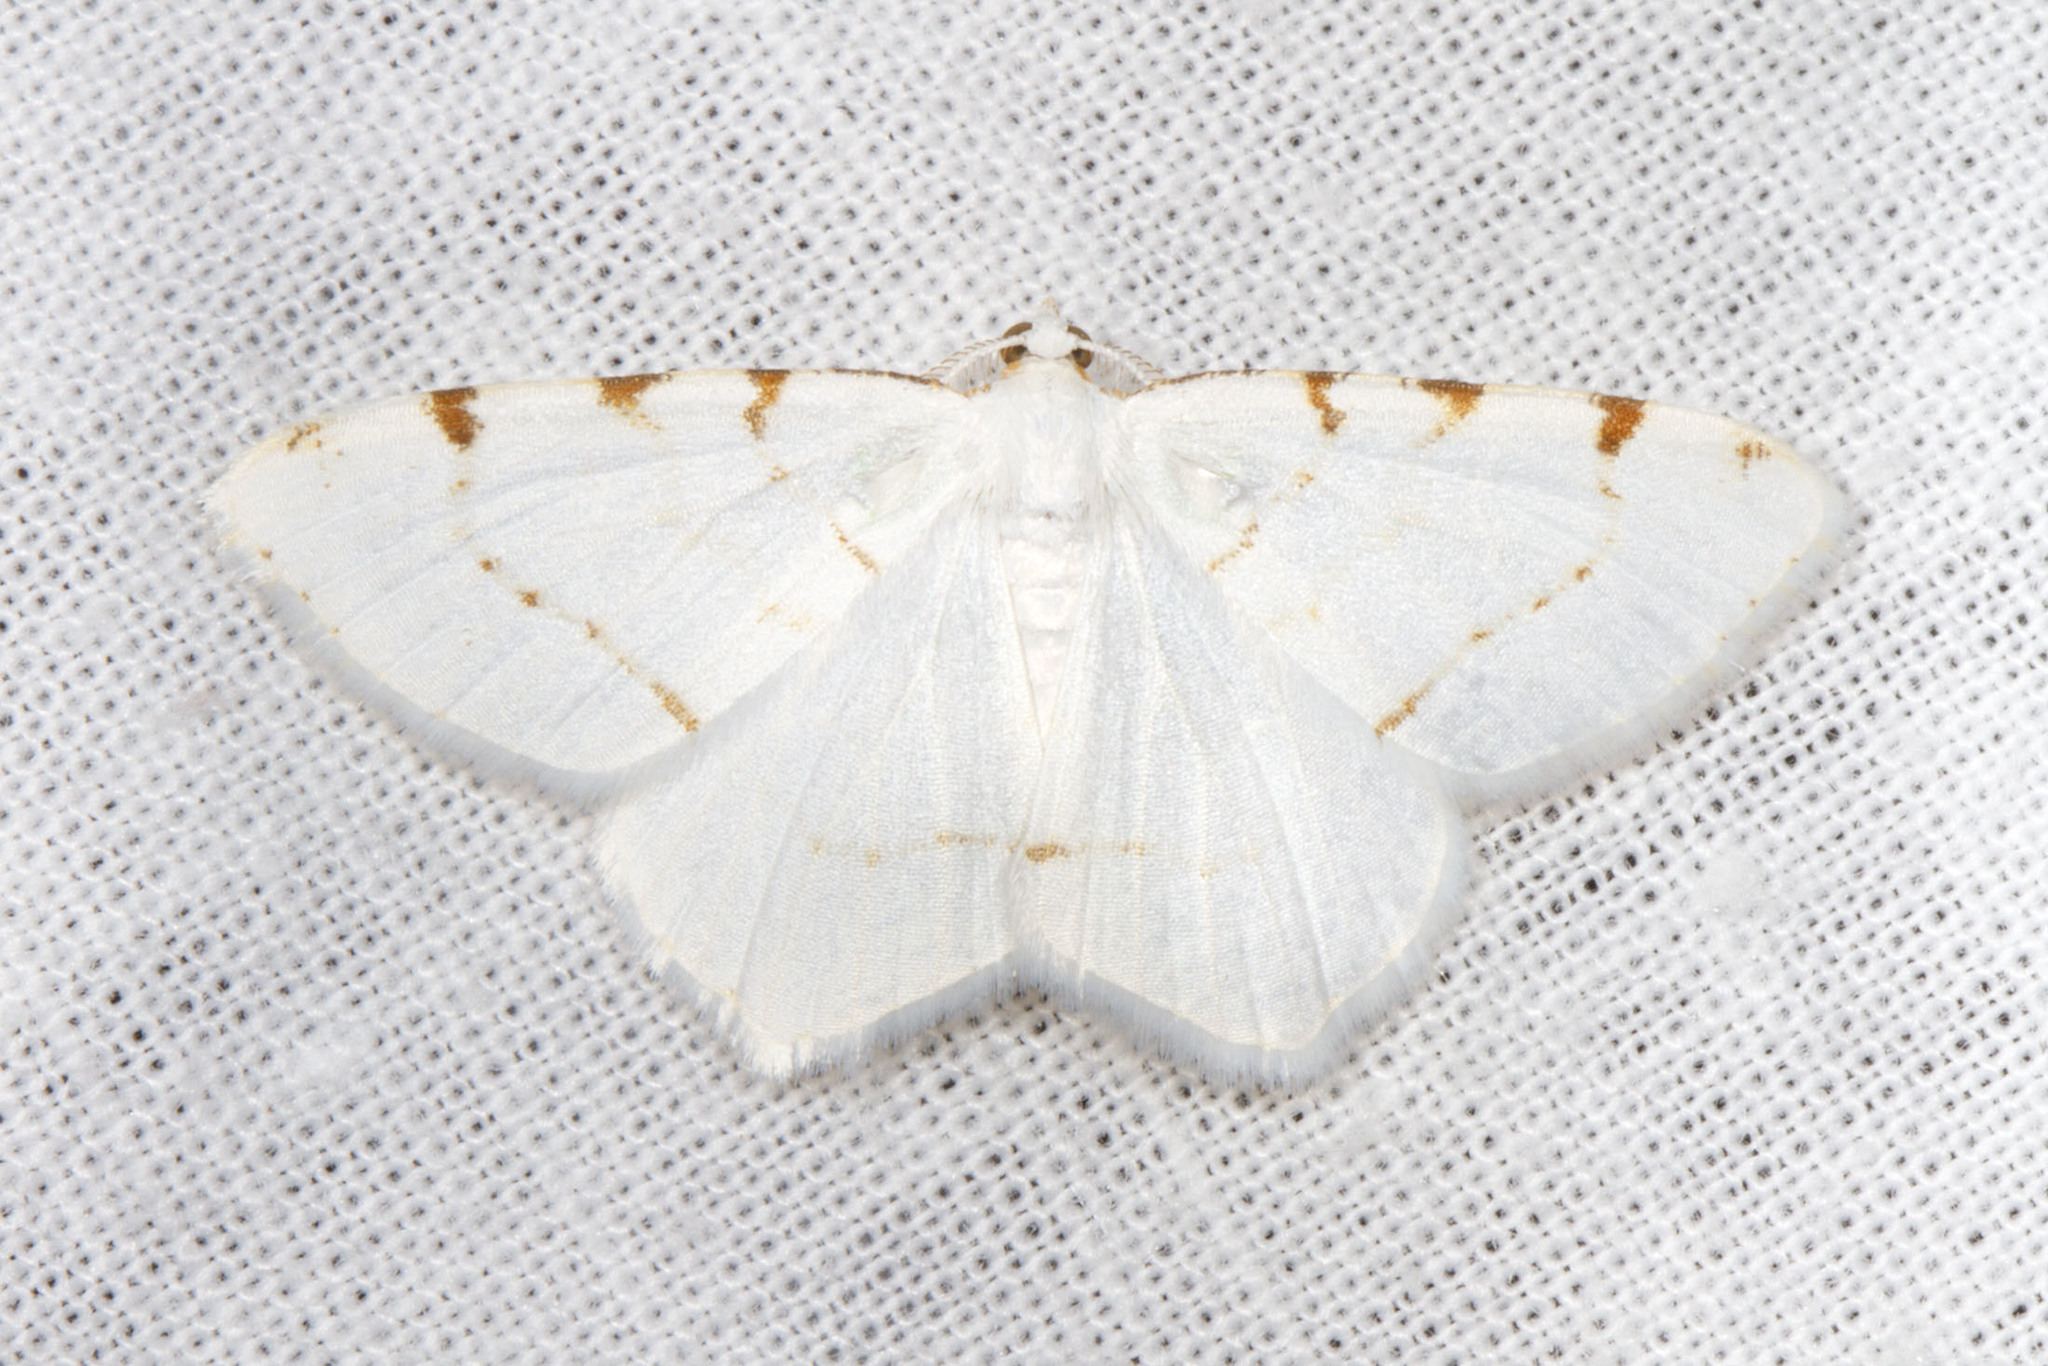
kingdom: Animalia
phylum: Arthropoda
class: Insecta
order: Lepidoptera
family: Geometridae
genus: Macaria
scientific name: Macaria pustularia
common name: Lesser maple spanworm moth
